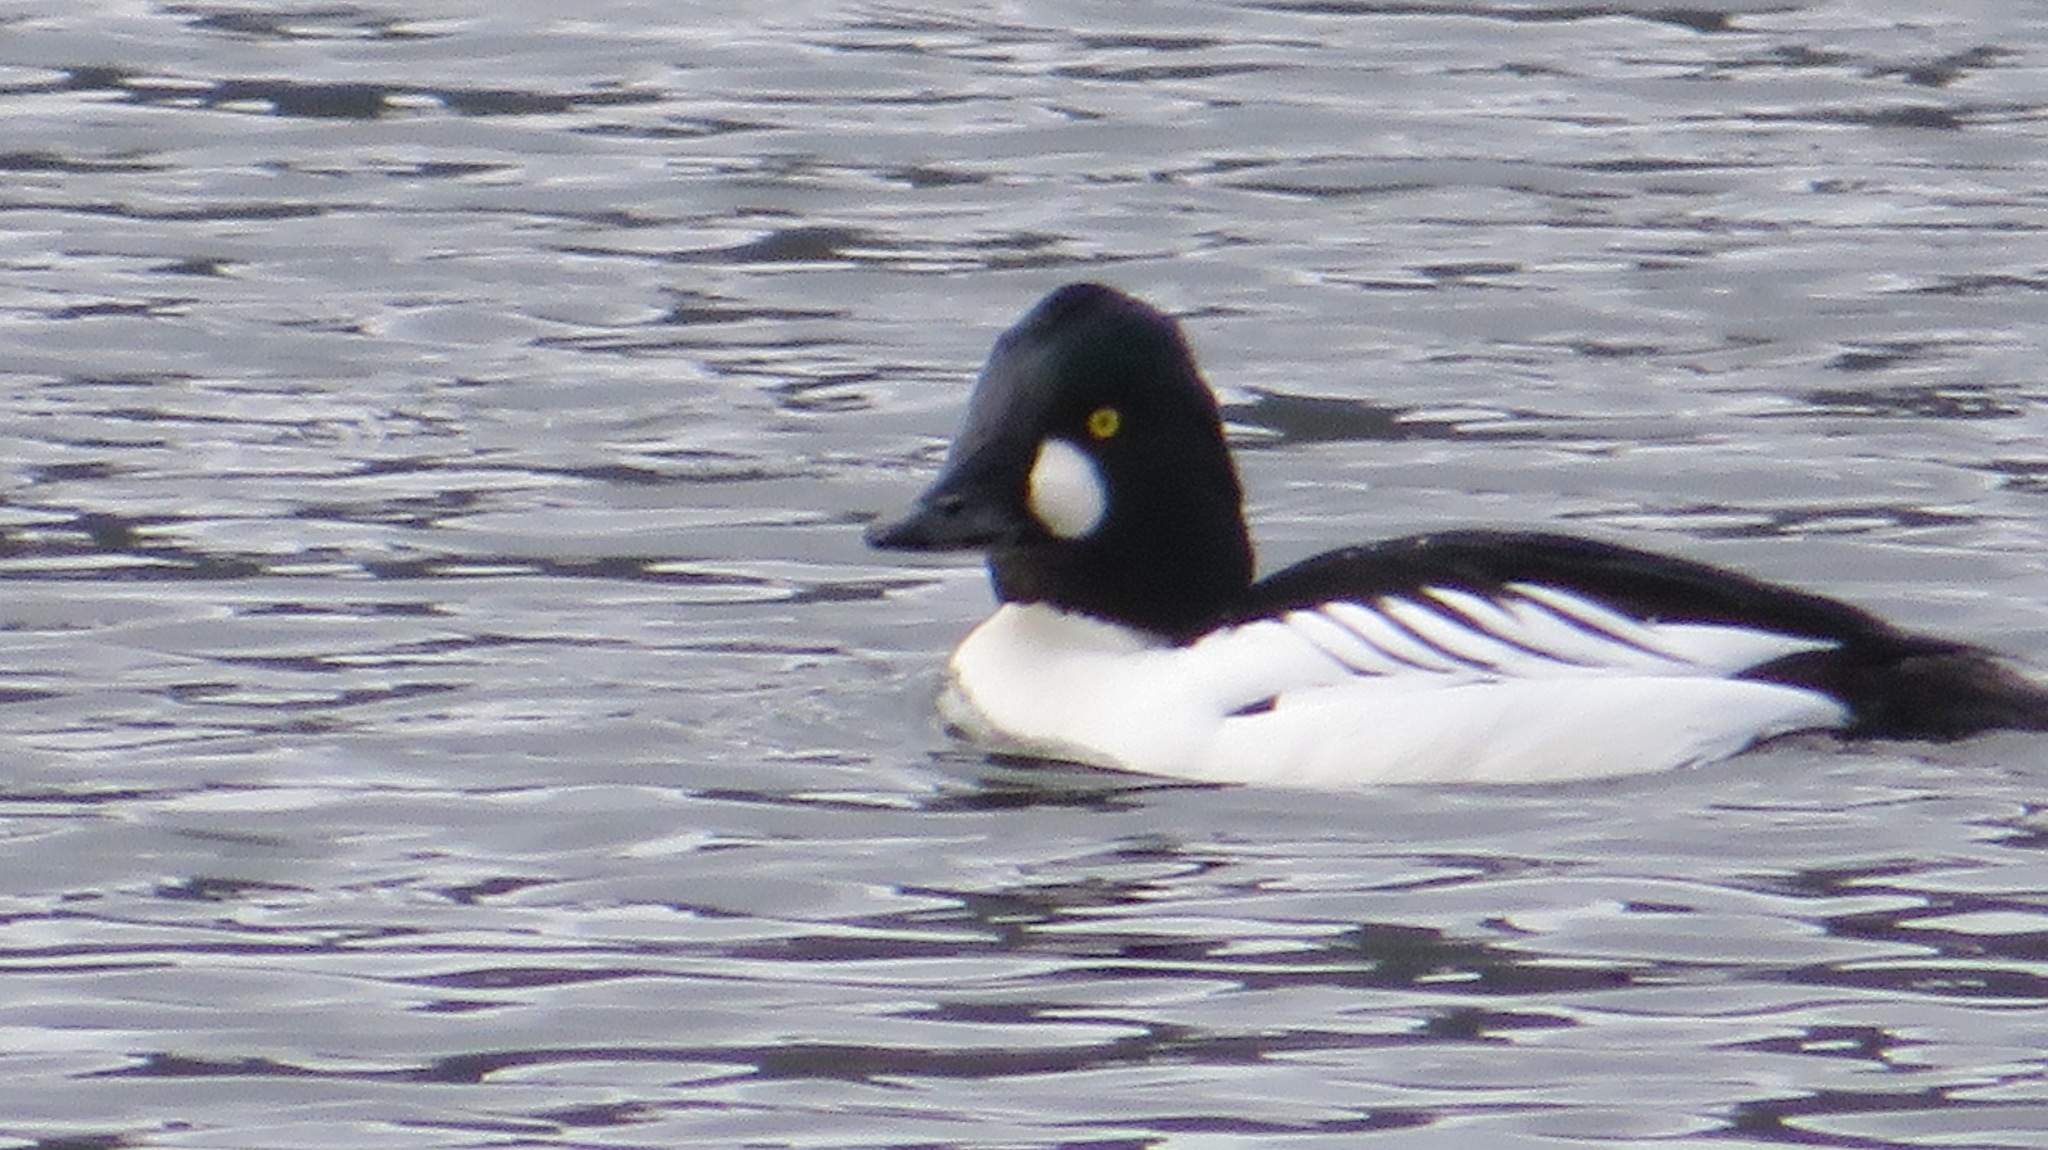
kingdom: Animalia
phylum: Chordata
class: Aves
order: Anseriformes
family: Anatidae
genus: Bucephala
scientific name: Bucephala clangula
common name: Common goldeneye
